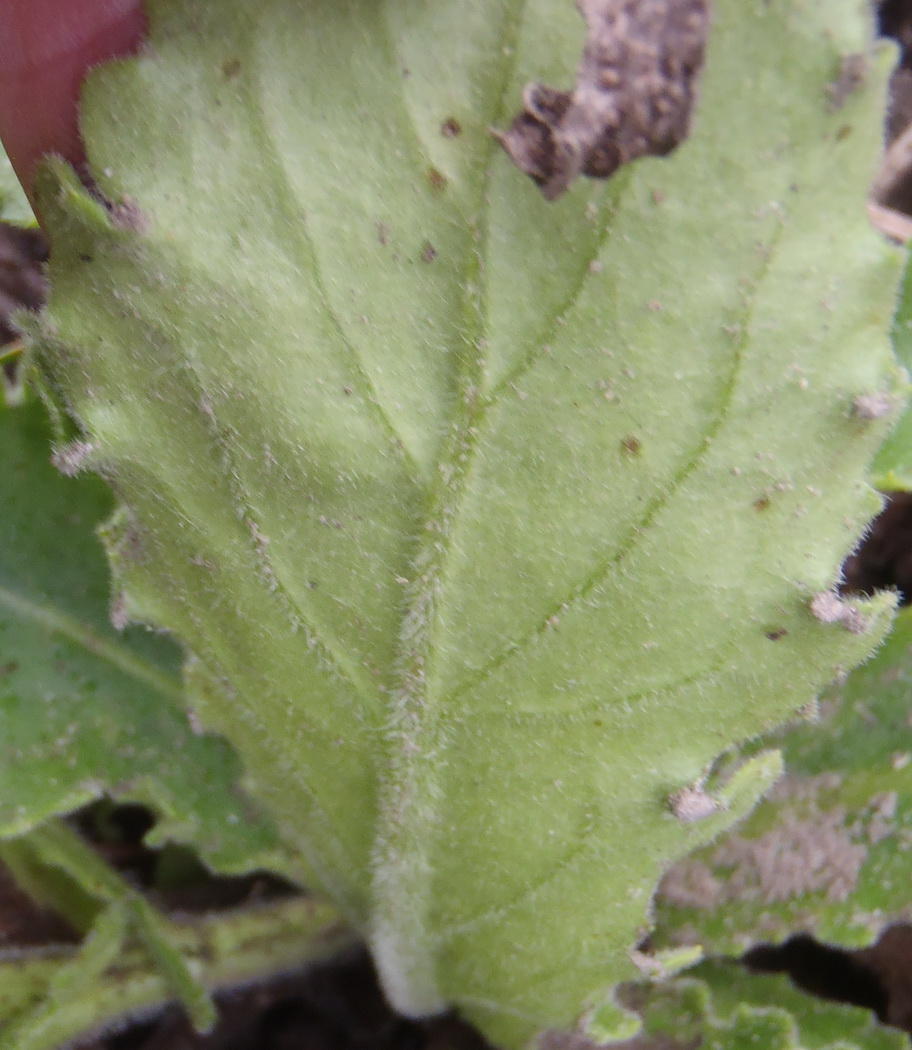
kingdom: Plantae
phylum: Tracheophyta
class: Magnoliopsida
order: Asterales
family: Asteraceae
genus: Senecio
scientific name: Senecio speciosus
